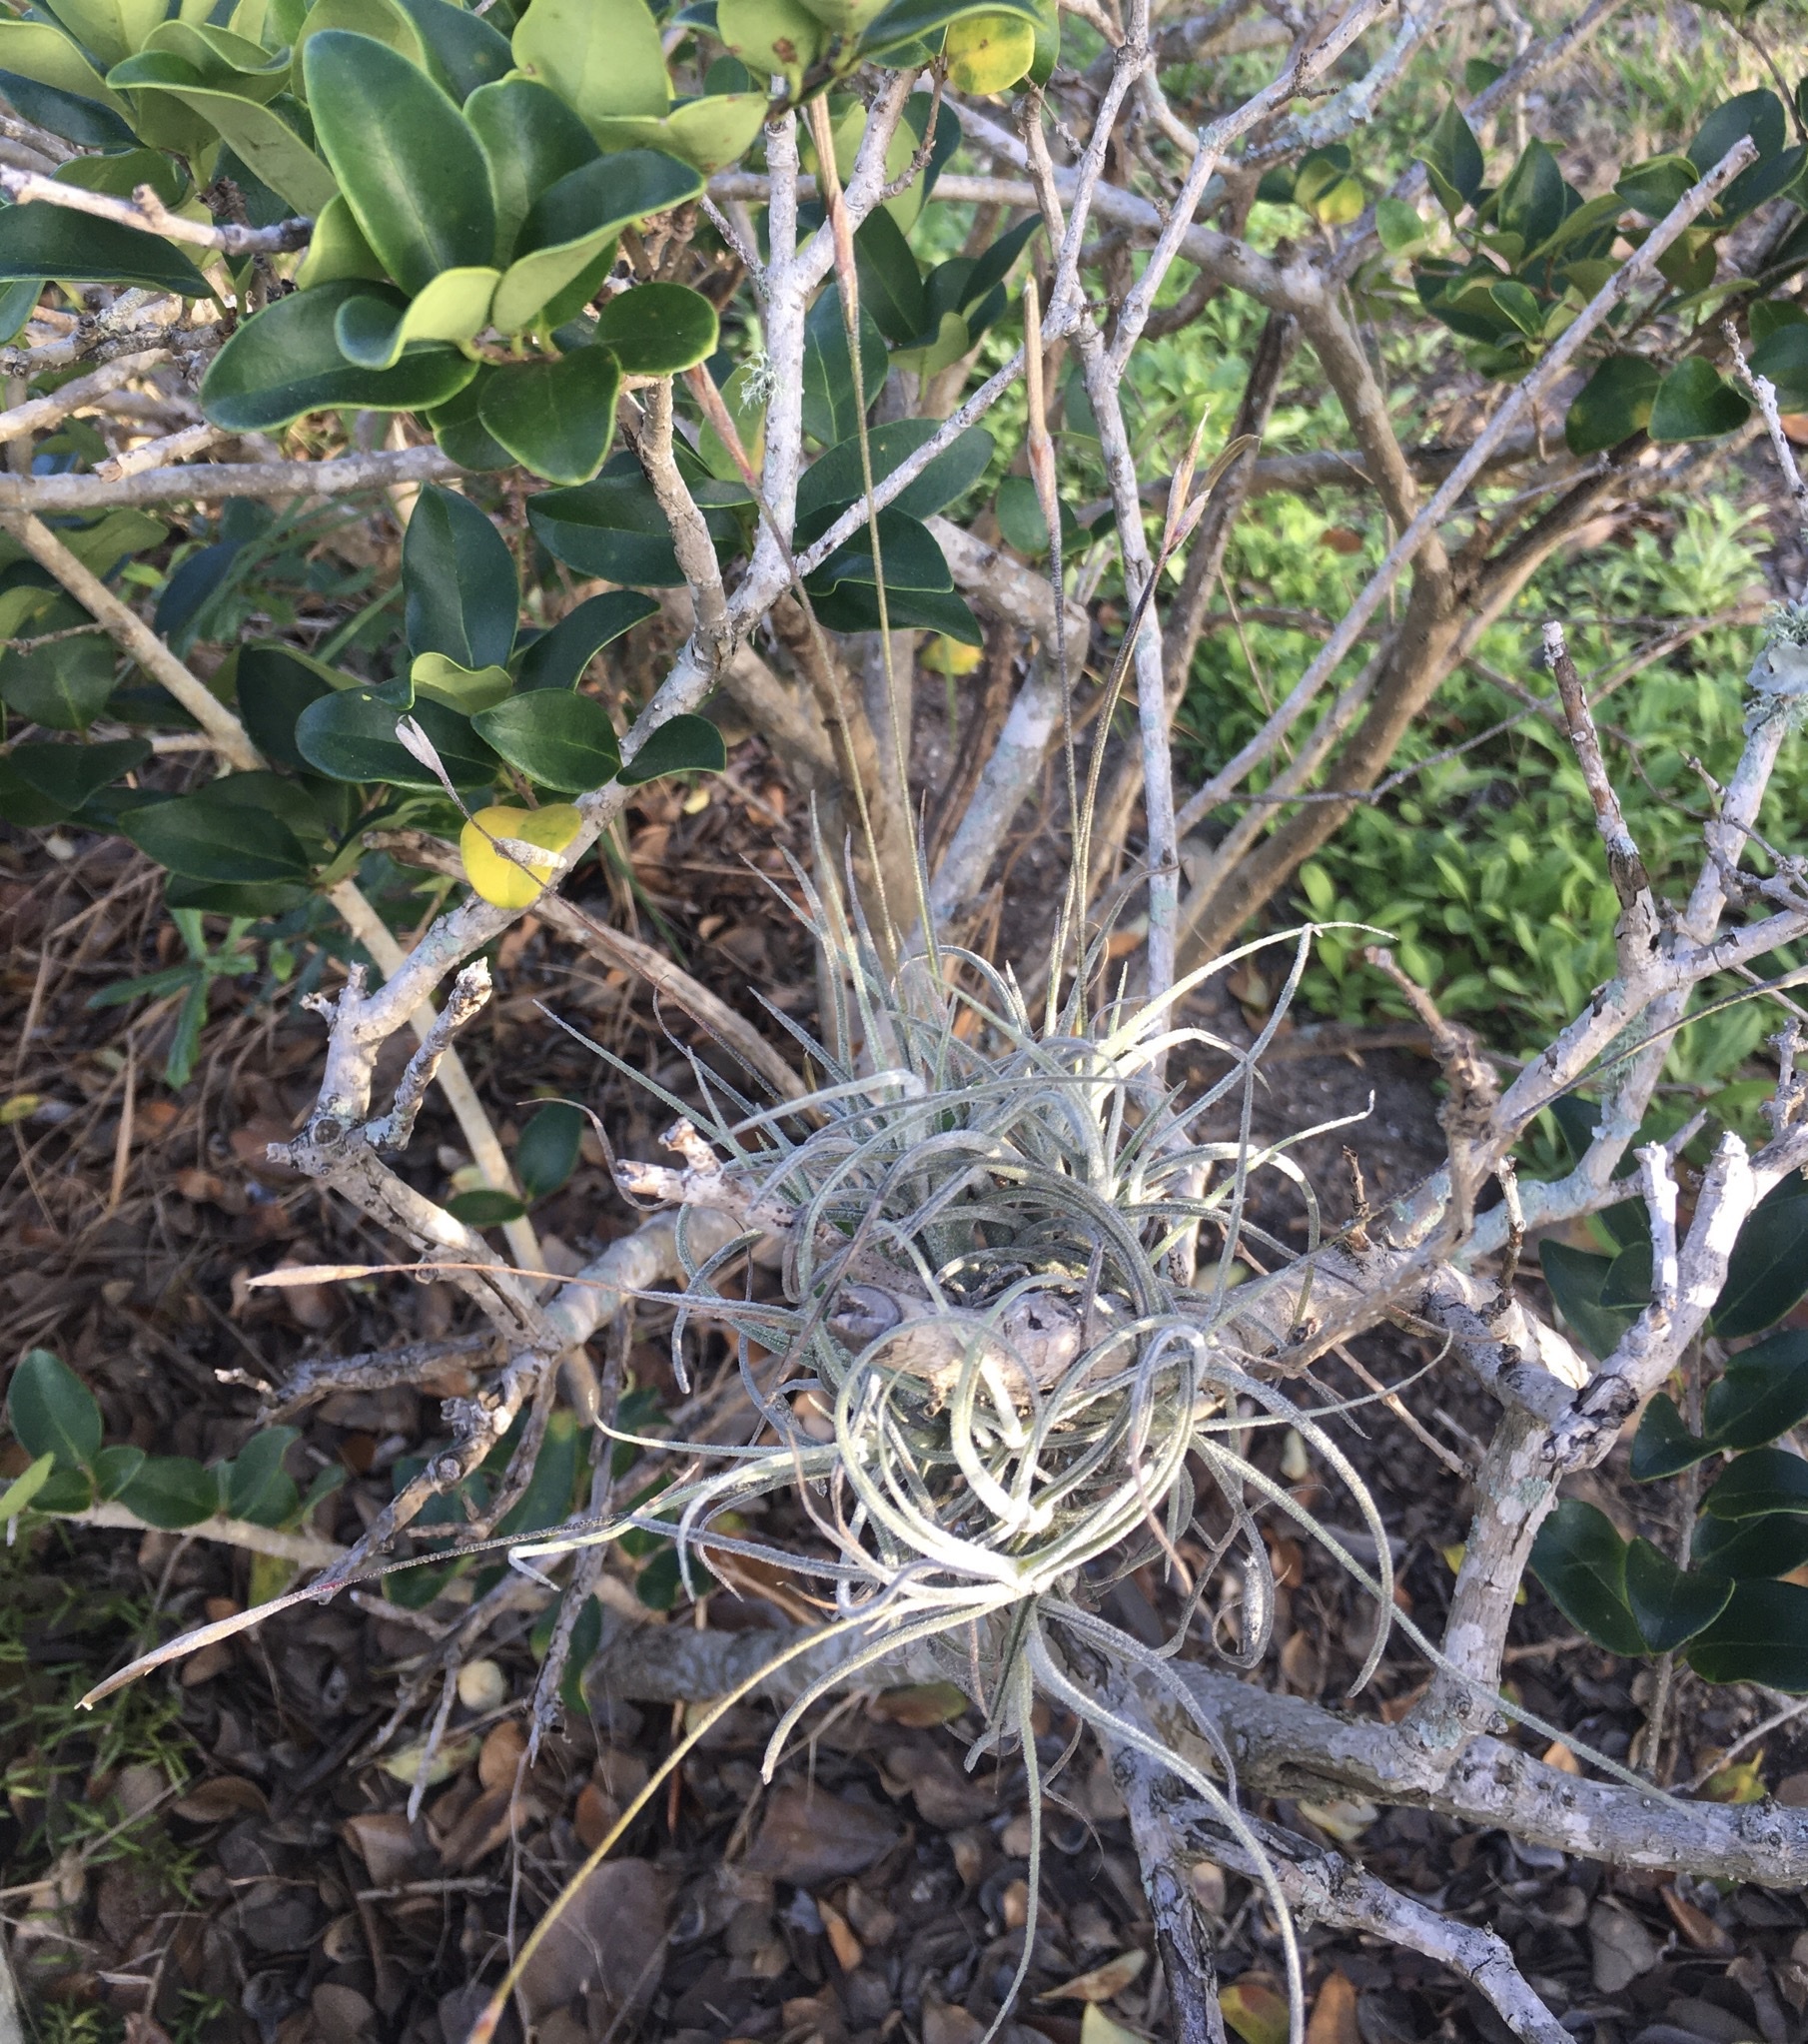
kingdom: Plantae
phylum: Tracheophyta
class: Liliopsida
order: Poales
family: Bromeliaceae
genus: Tillandsia
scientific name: Tillandsia recurvata
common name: Small ballmoss
